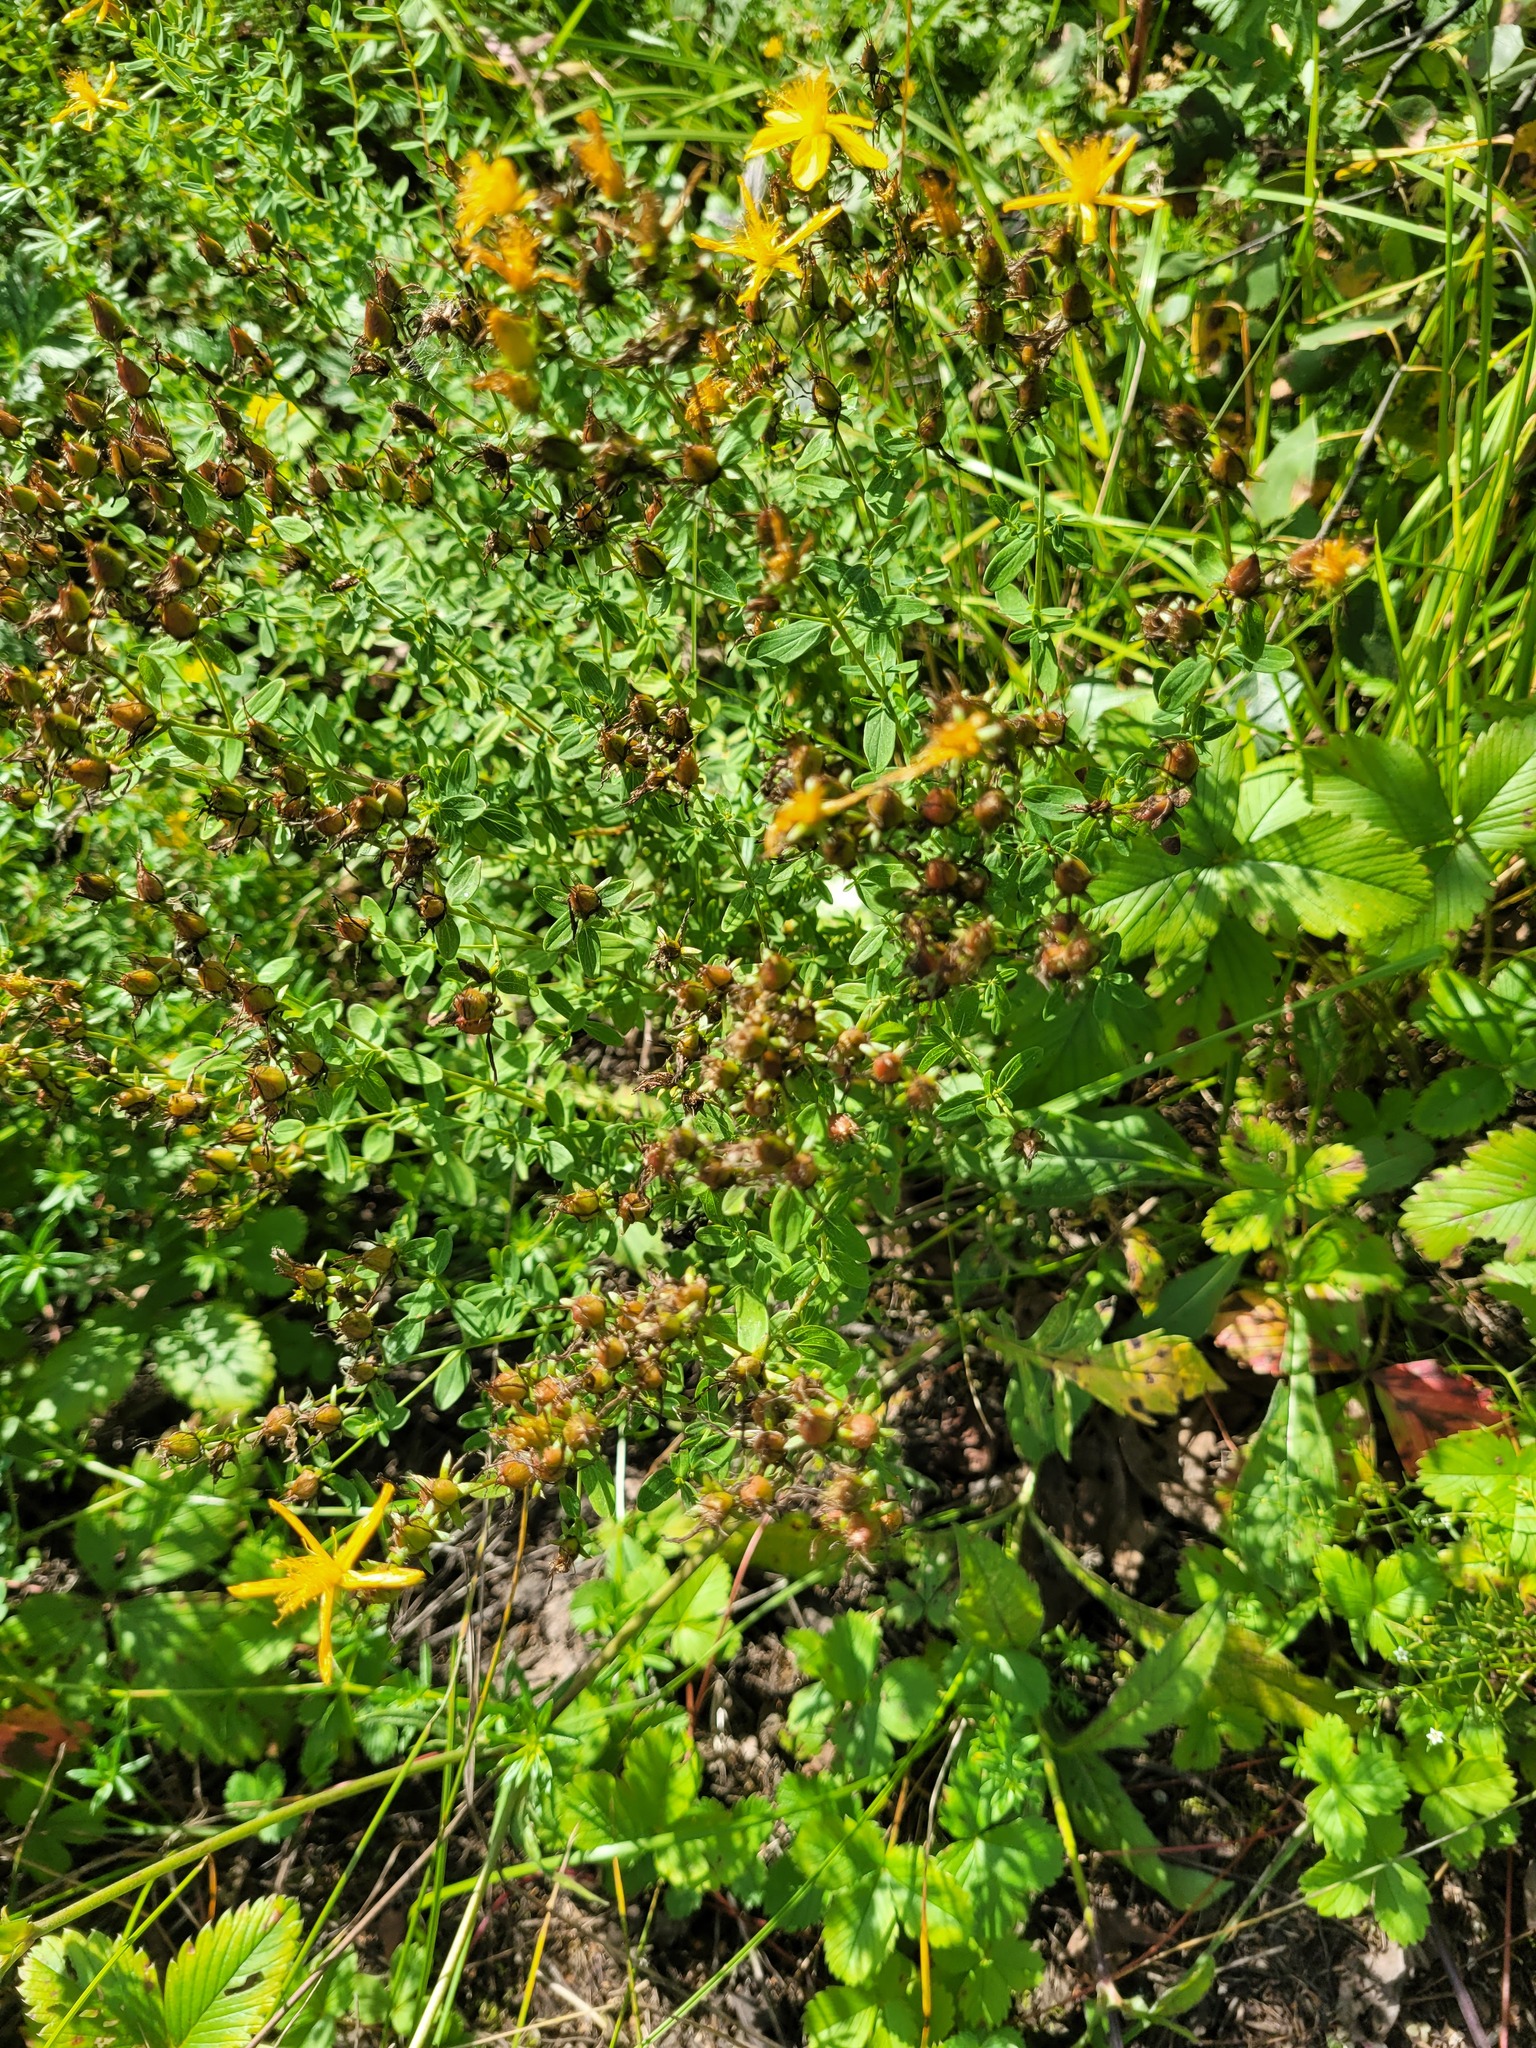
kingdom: Plantae
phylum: Tracheophyta
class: Magnoliopsida
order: Malpighiales
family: Hypericaceae
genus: Hypericum
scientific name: Hypericum perforatum
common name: Common st. johnswort
